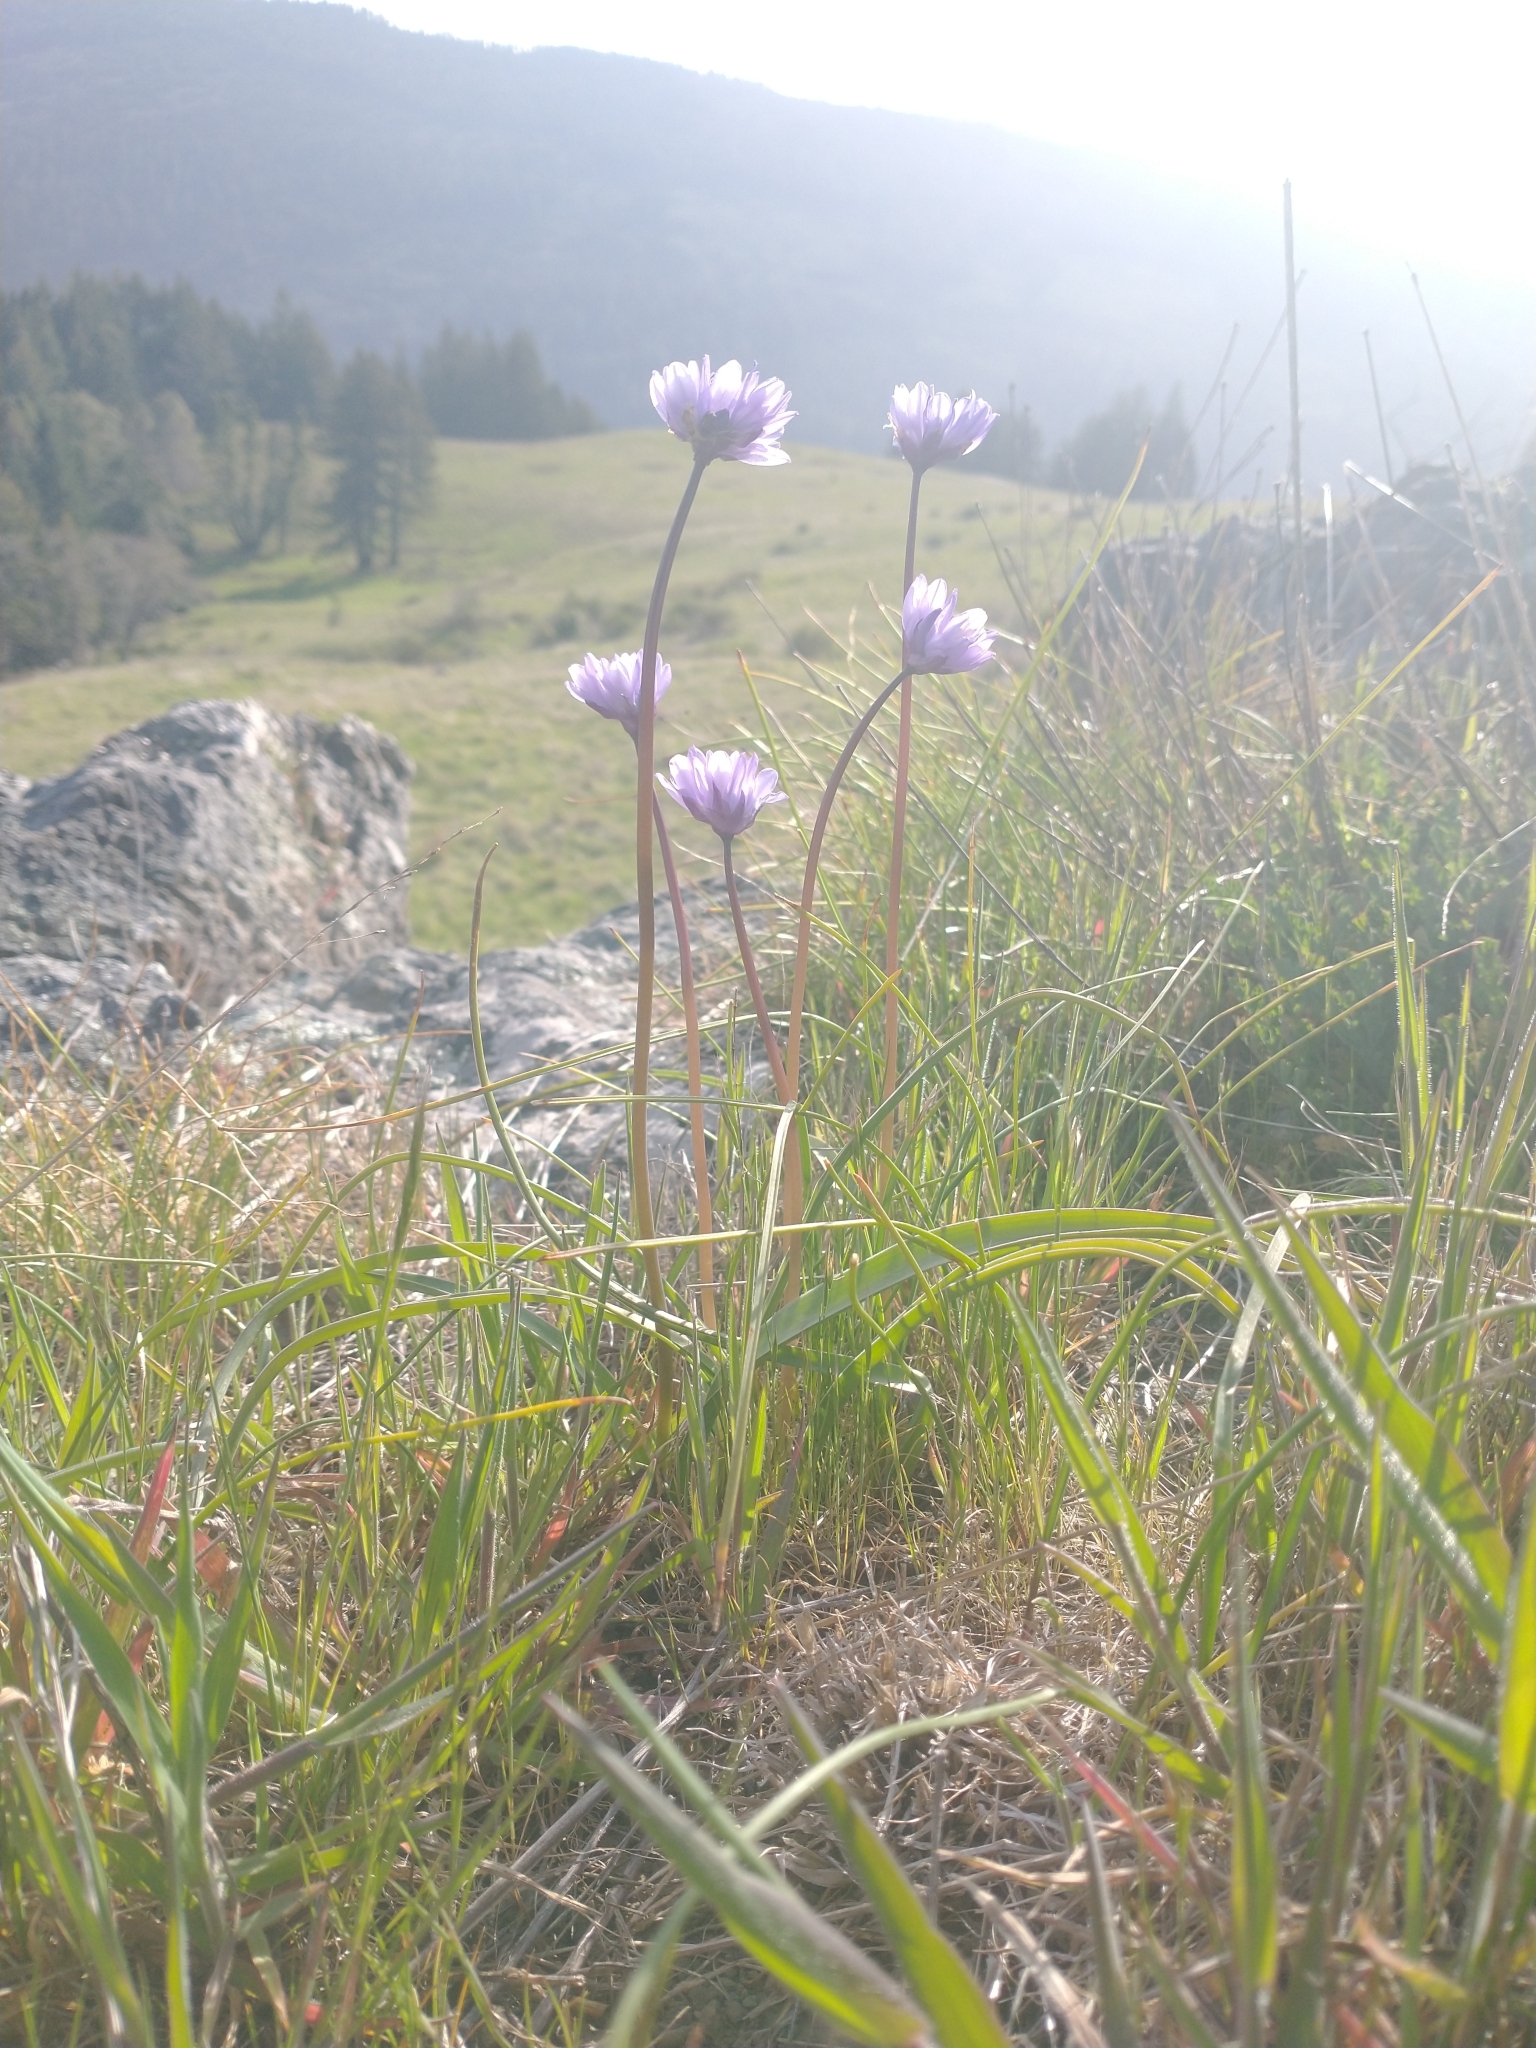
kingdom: Plantae
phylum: Tracheophyta
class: Liliopsida
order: Asparagales
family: Asparagaceae
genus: Dipterostemon
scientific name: Dipterostemon capitatus
